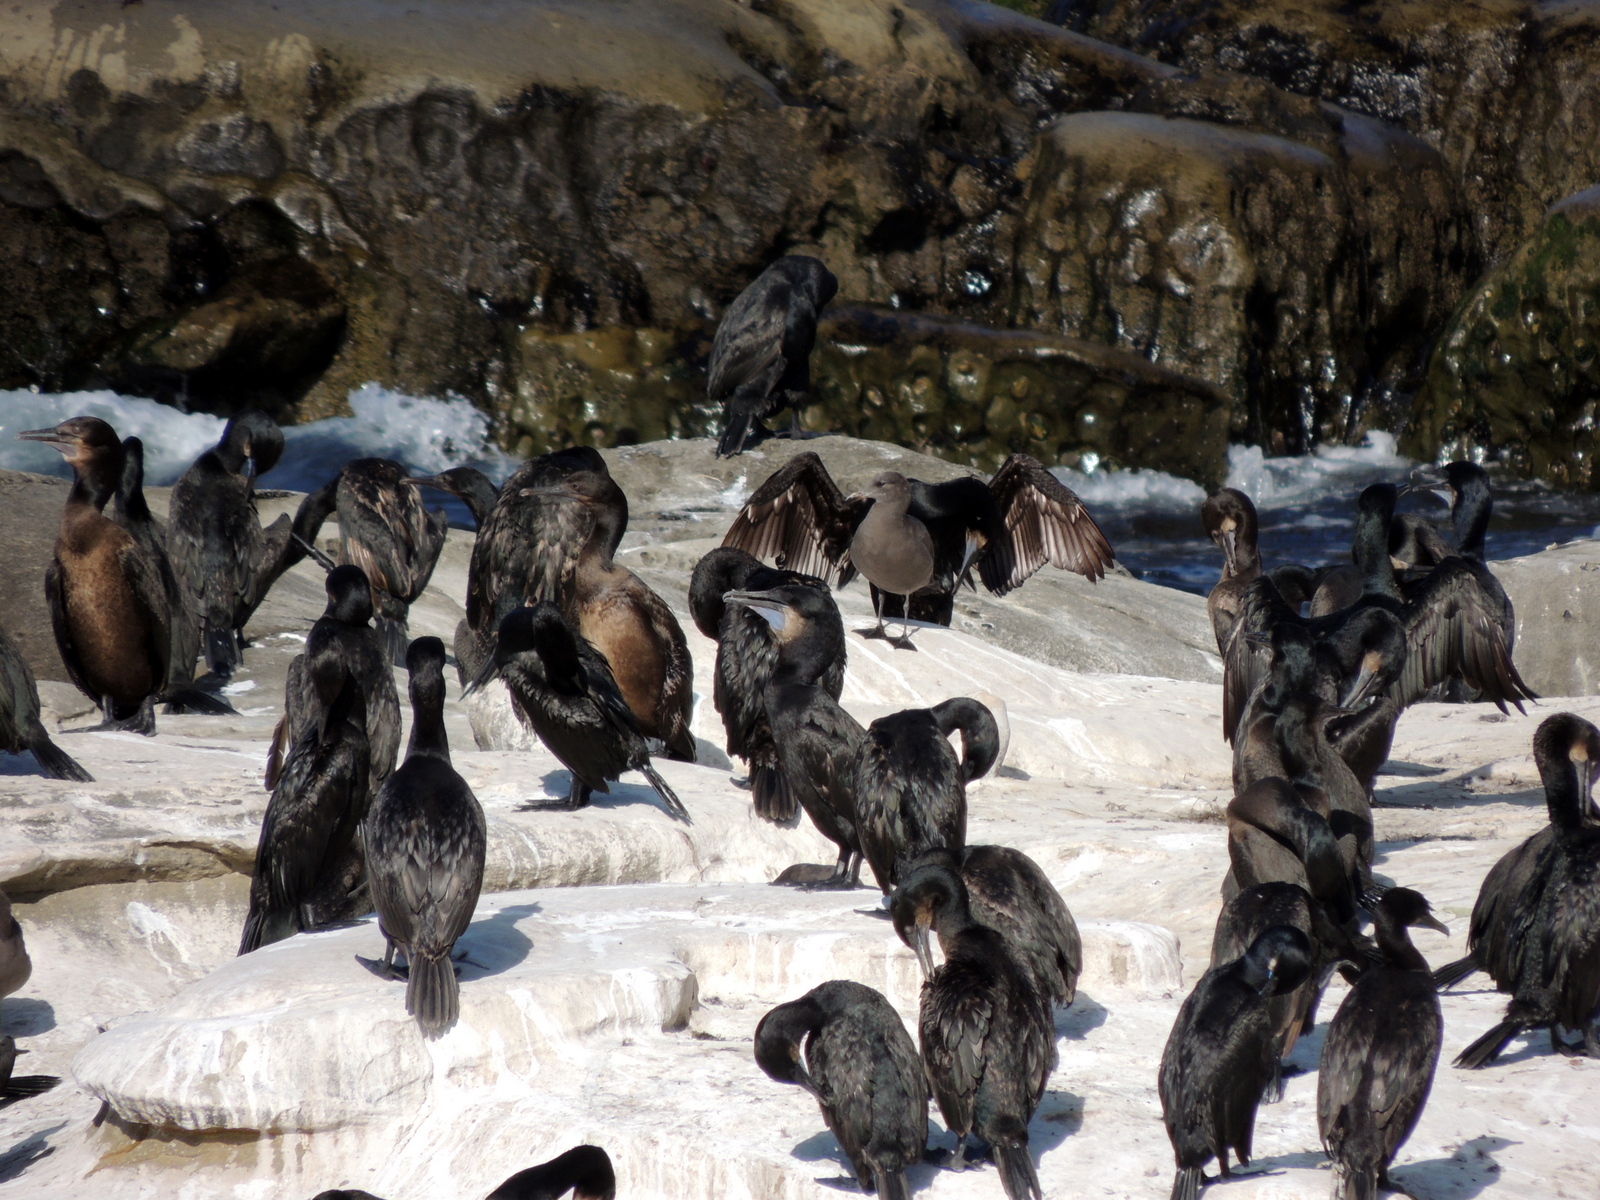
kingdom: Animalia
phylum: Chordata
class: Aves
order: Suliformes
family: Phalacrocoracidae
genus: Urile
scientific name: Urile penicillatus
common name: Brandt's cormorant
